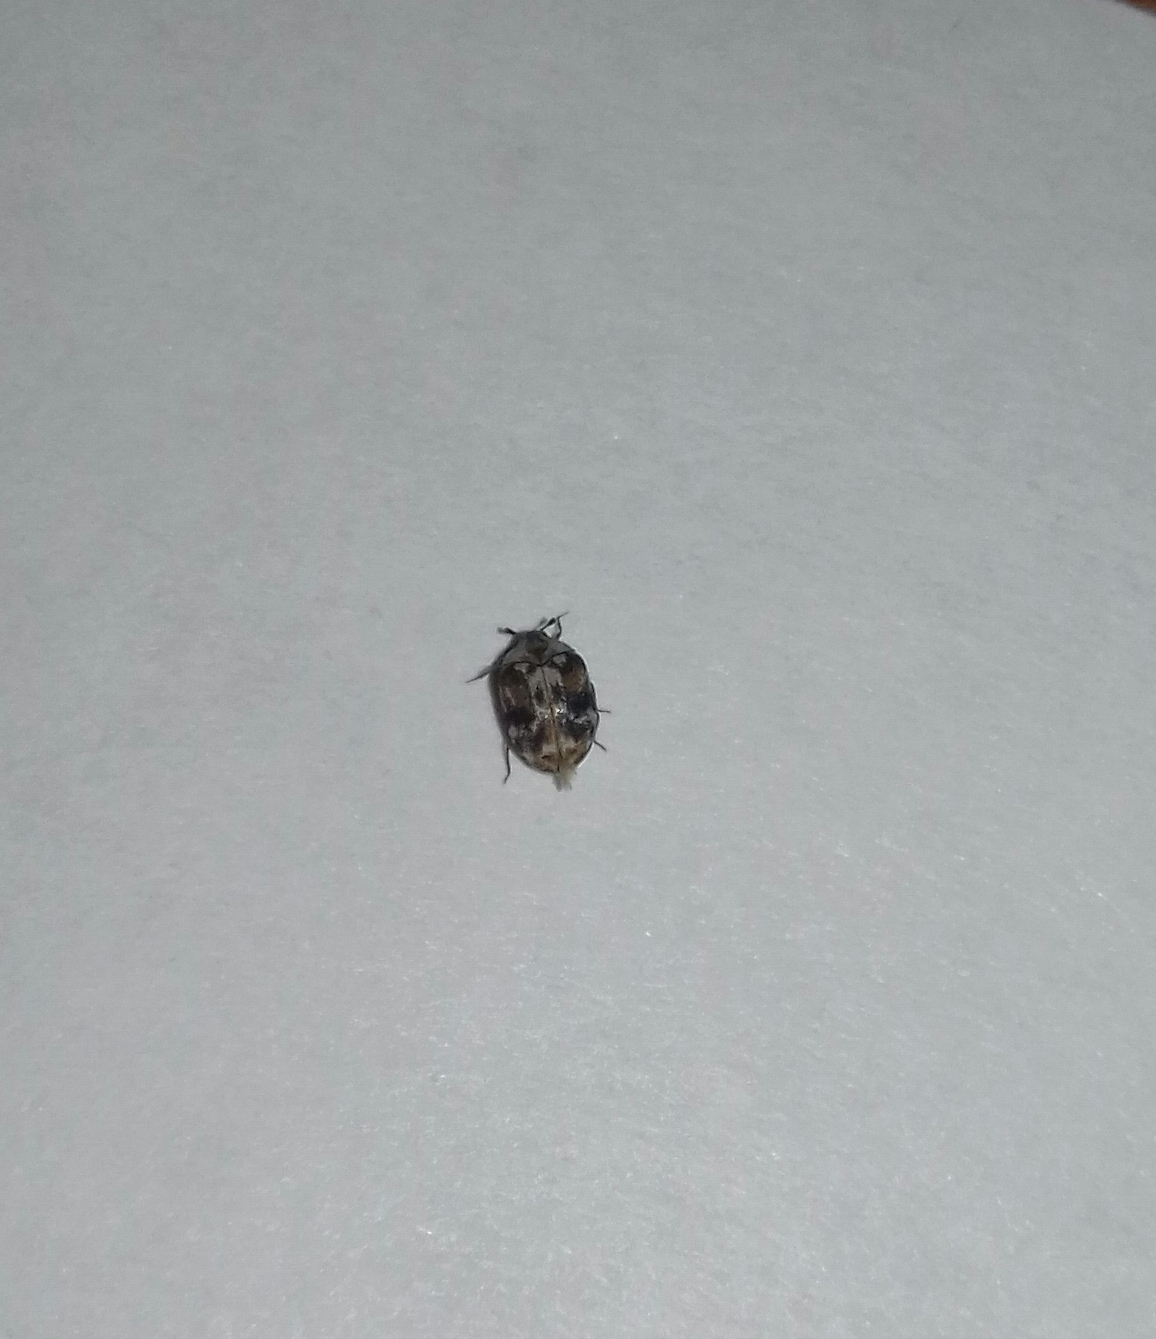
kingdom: Animalia
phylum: Arthropoda
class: Insecta
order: Coleoptera
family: Dermestidae
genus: Anthrenus
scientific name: Anthrenus picturatus
